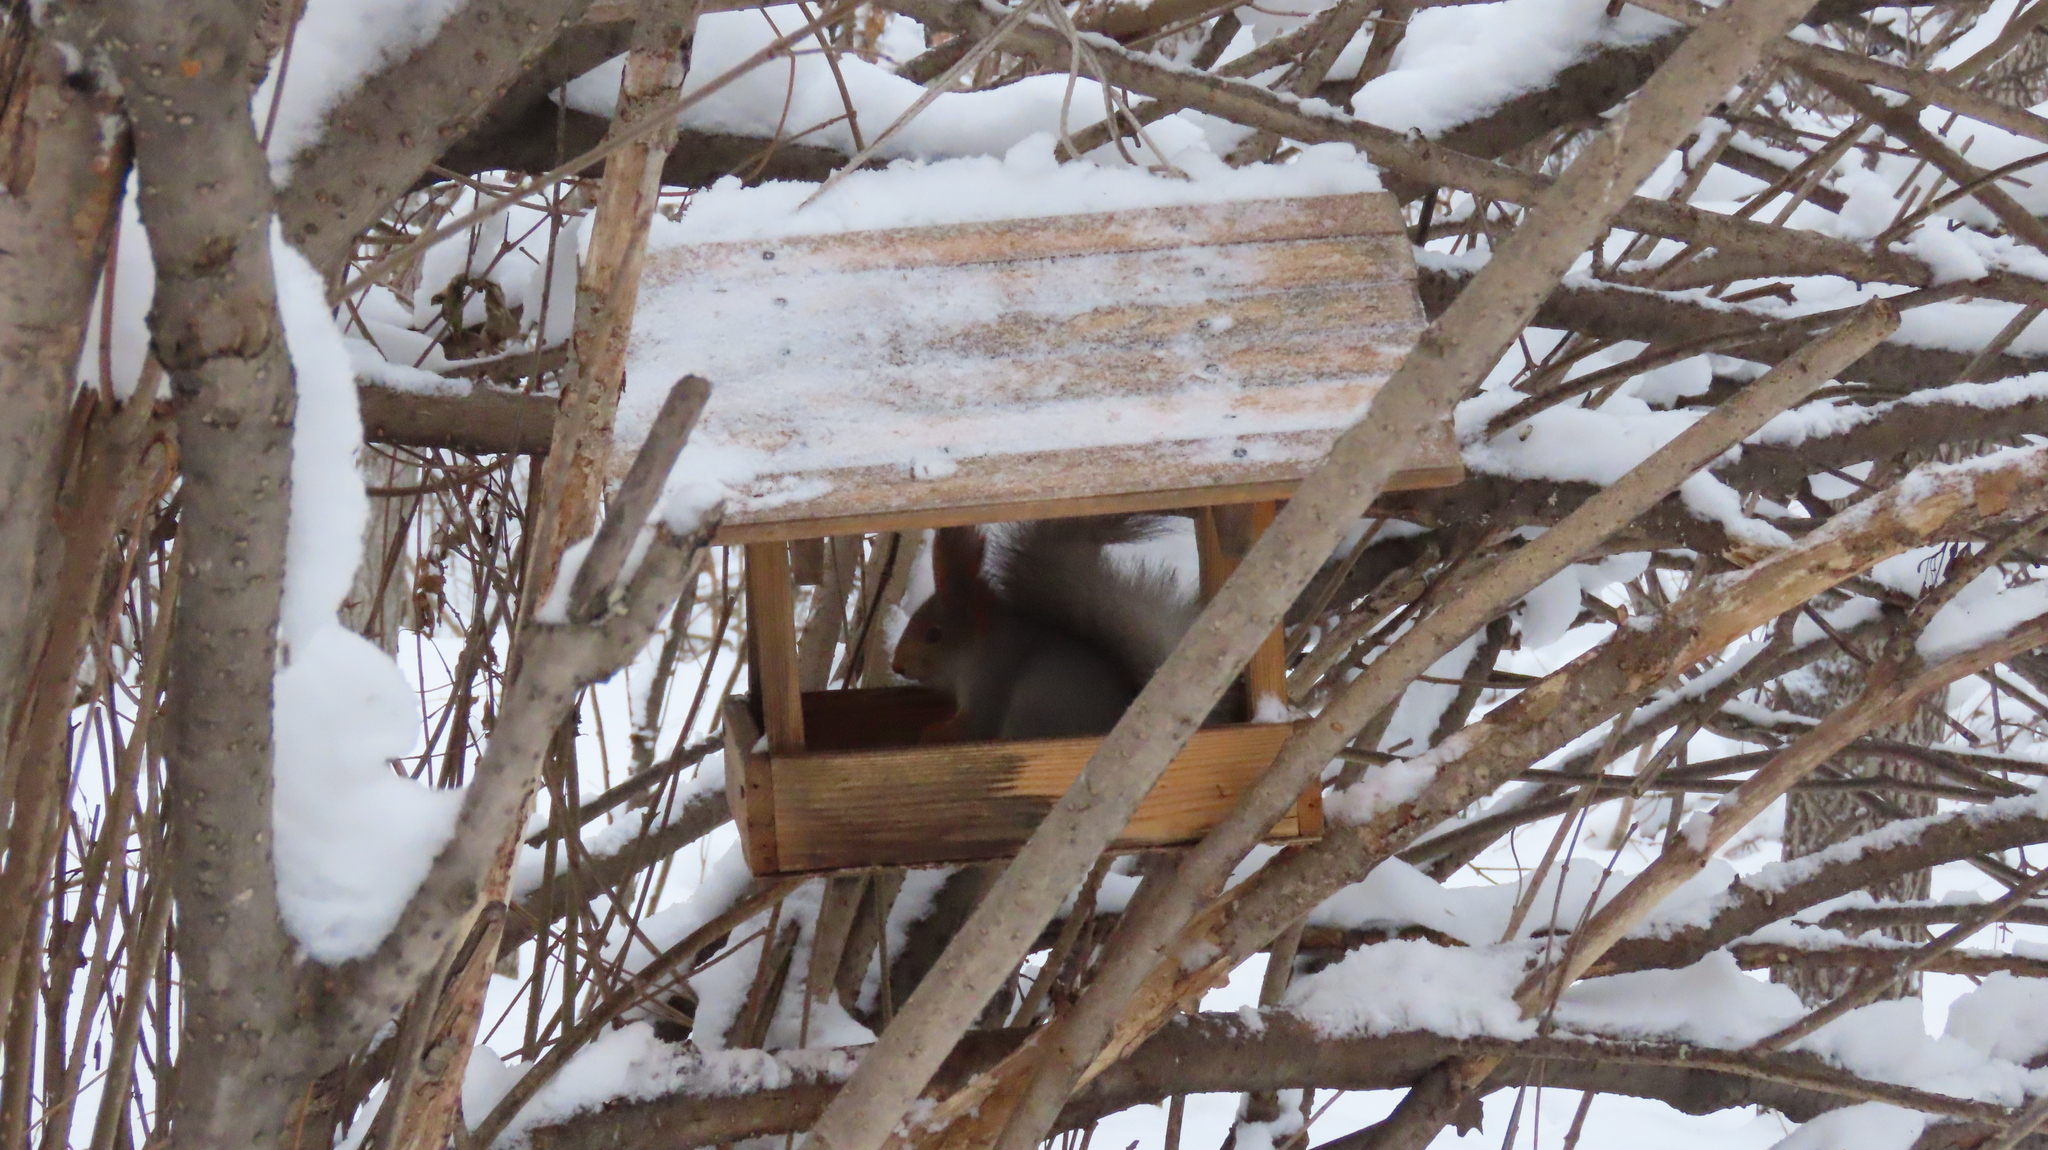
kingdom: Animalia
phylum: Chordata
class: Mammalia
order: Rodentia
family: Sciuridae
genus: Sciurus
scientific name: Sciurus vulgaris
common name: Eurasian red squirrel
